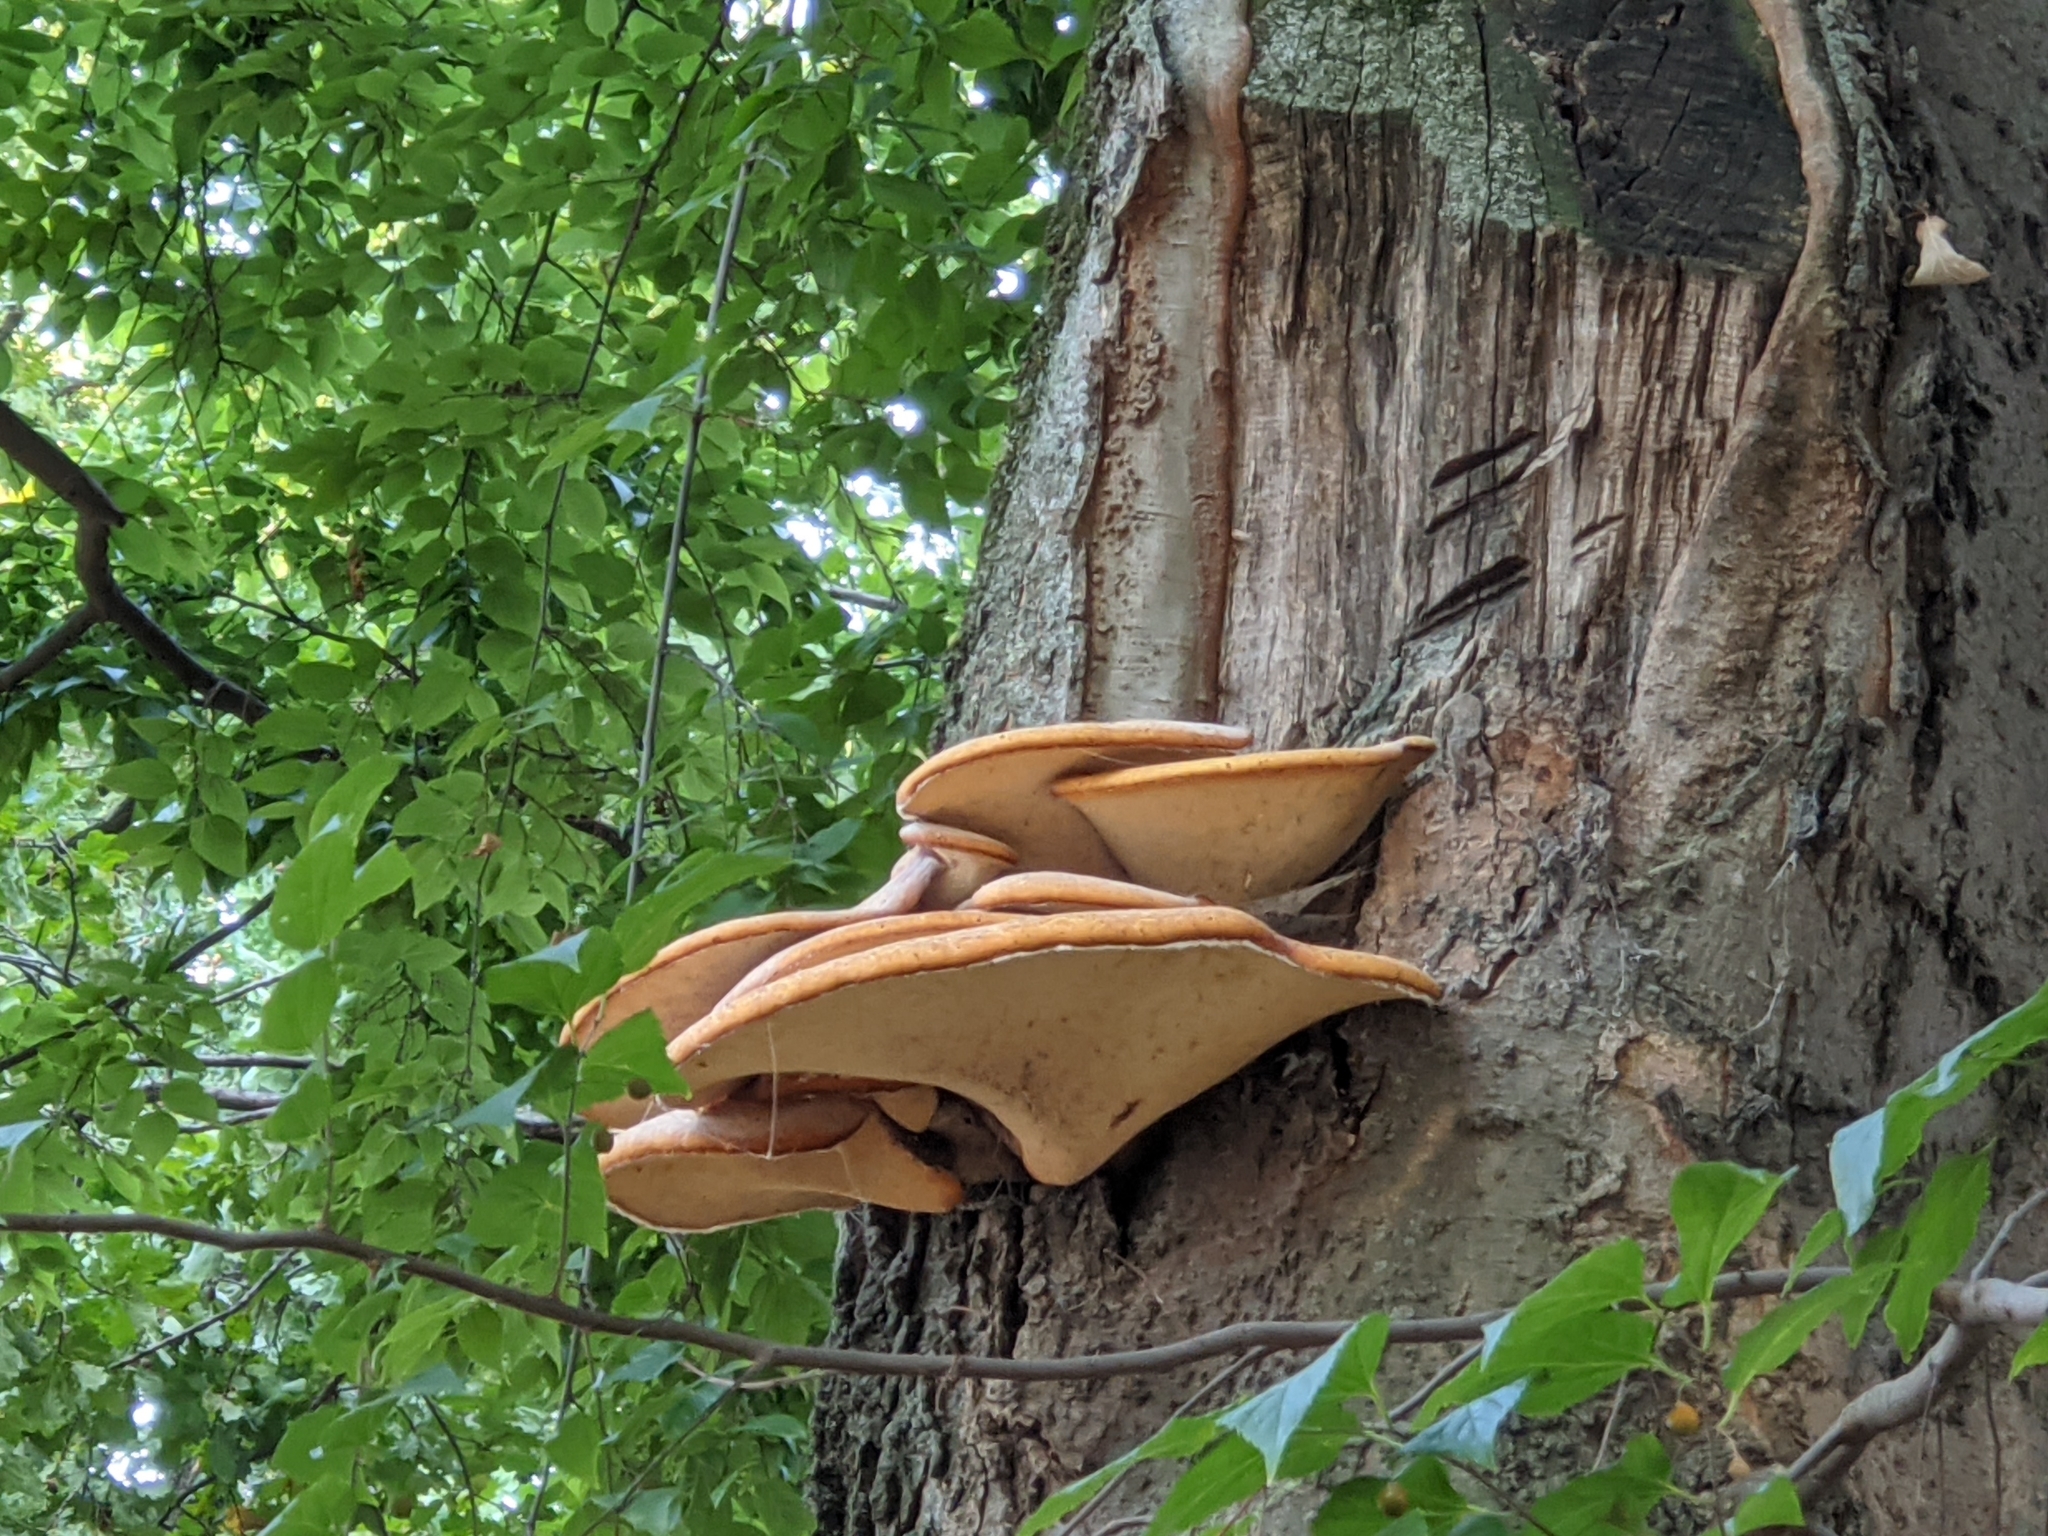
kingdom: Fungi
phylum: Basidiomycota
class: Agaricomycetes
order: Polyporales
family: Polyporaceae
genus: Cerioporus
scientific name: Cerioporus squamosus
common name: Dryad's saddle
